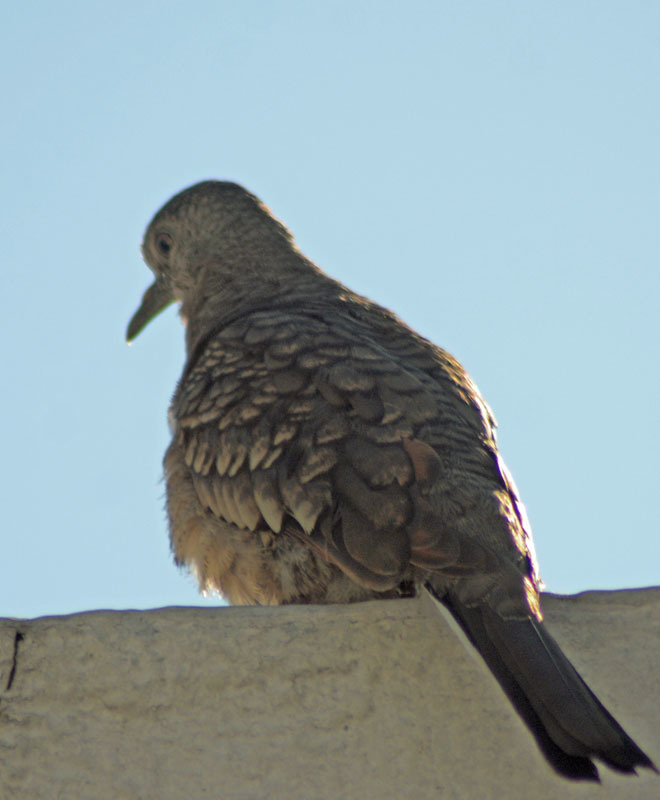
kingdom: Animalia
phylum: Chordata
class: Aves
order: Columbiformes
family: Columbidae
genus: Columbina
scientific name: Columbina inca
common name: Inca dove
